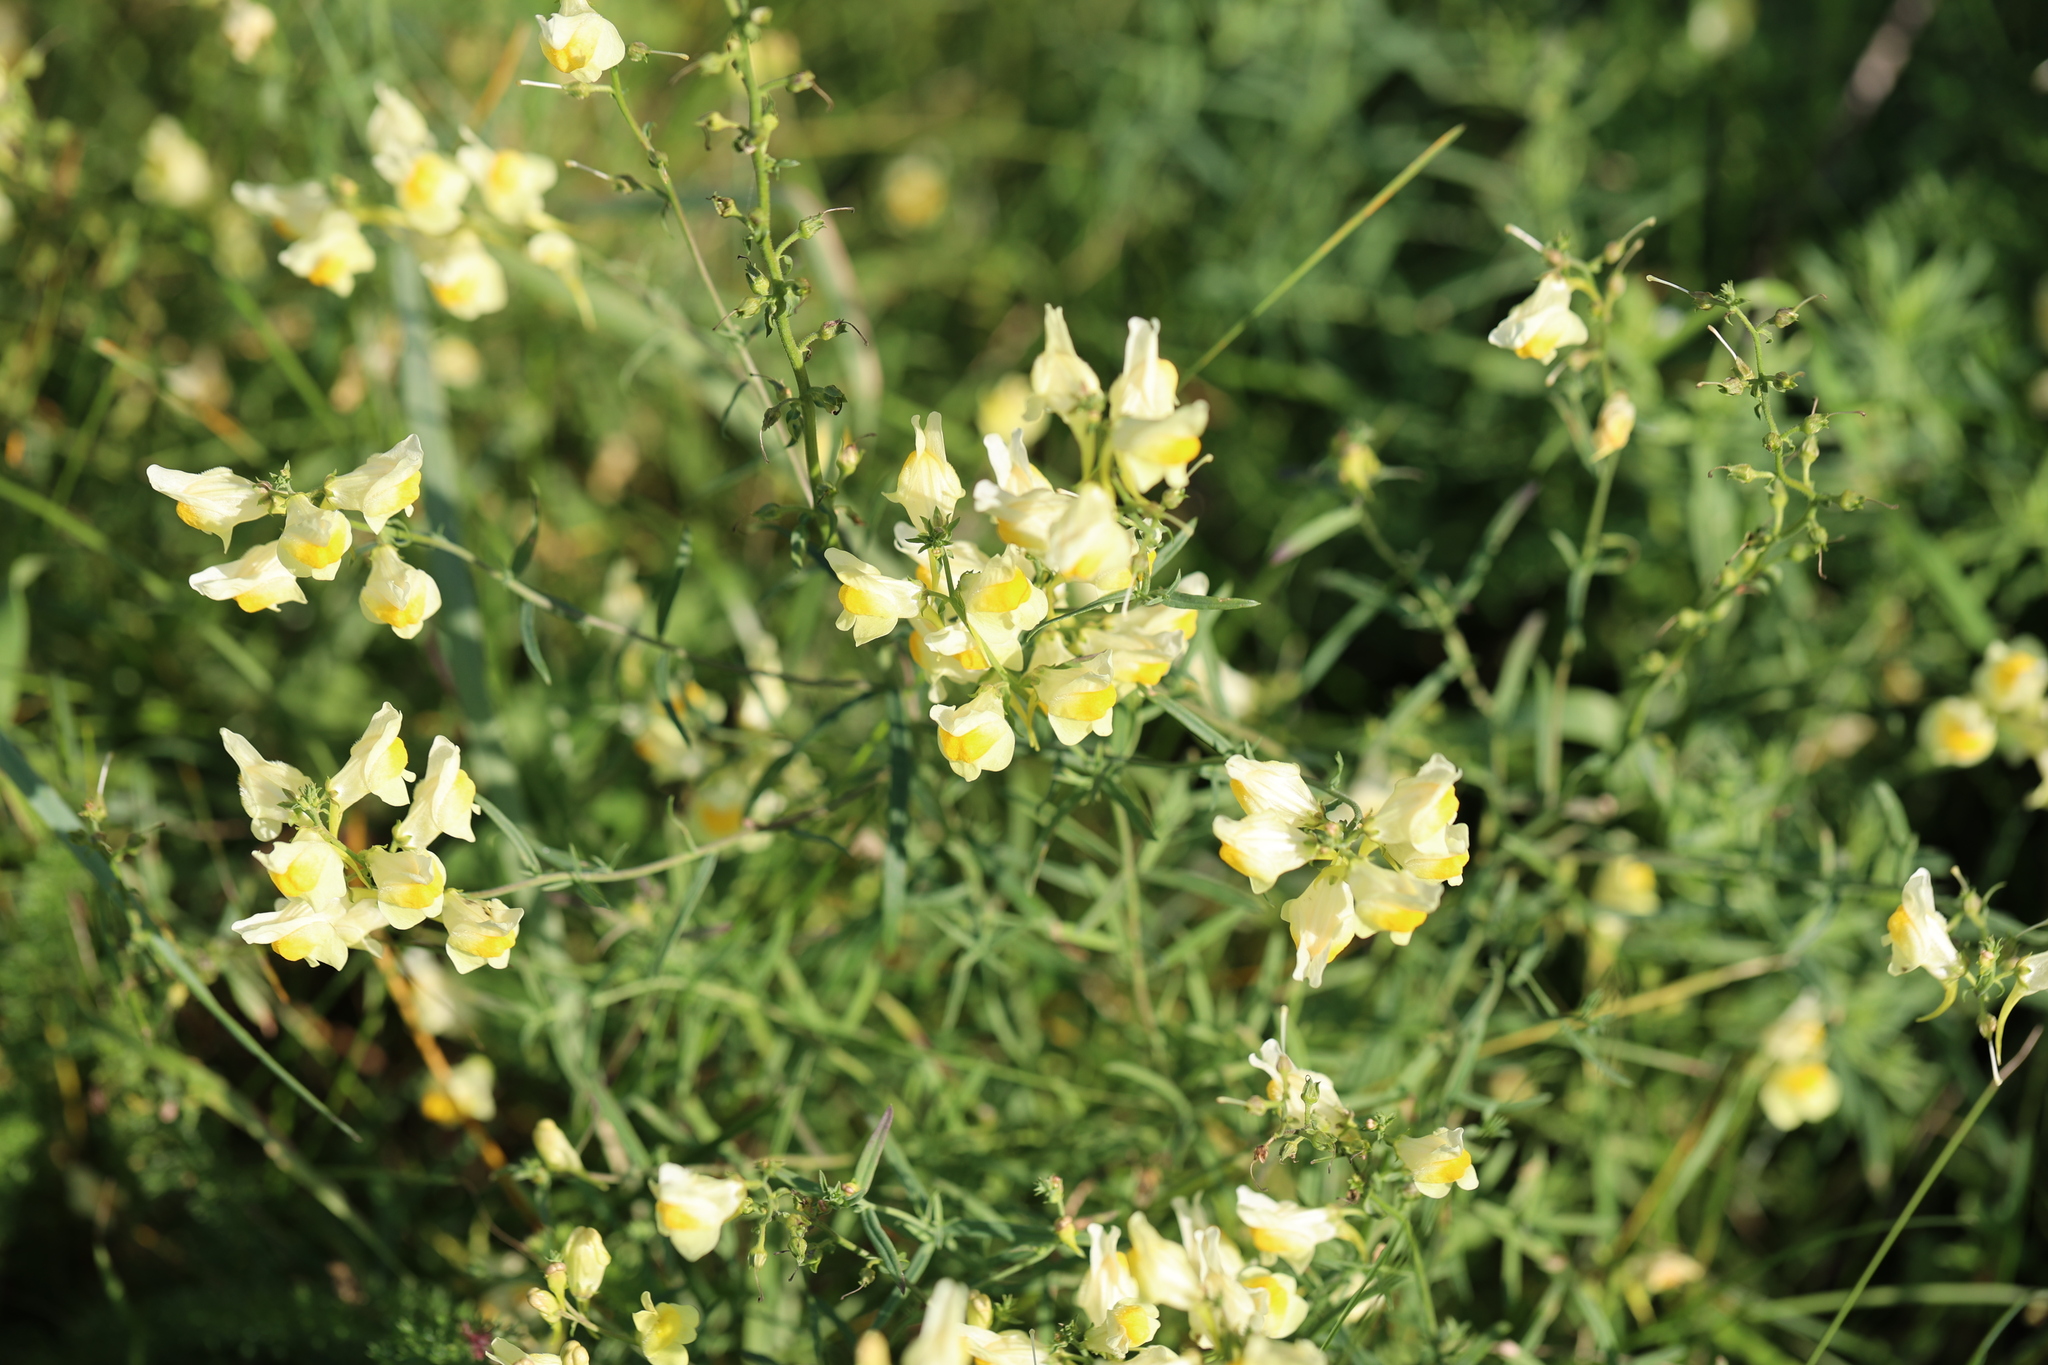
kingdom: Plantae
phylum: Tracheophyta
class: Magnoliopsida
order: Lamiales
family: Plantaginaceae
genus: Linaria
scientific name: Linaria vulgaris
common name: Butter and eggs
